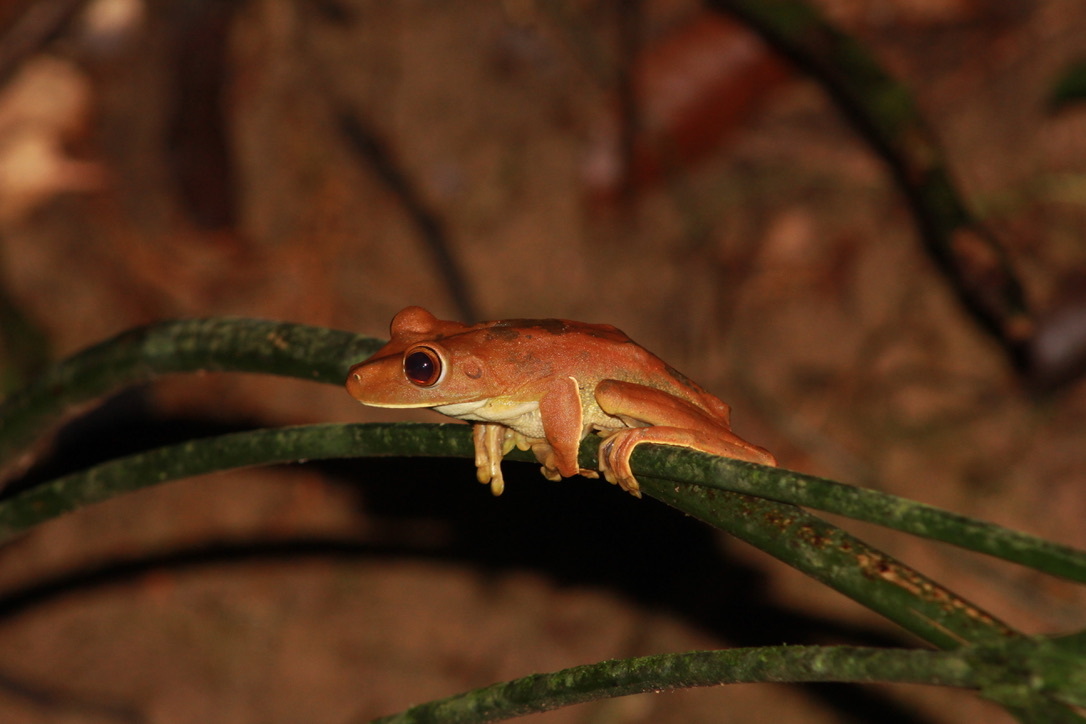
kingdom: Animalia
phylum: Chordata
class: Amphibia
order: Anura
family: Hylidae
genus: Boana
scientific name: Boana boans
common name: Giant gladiator treefrog
